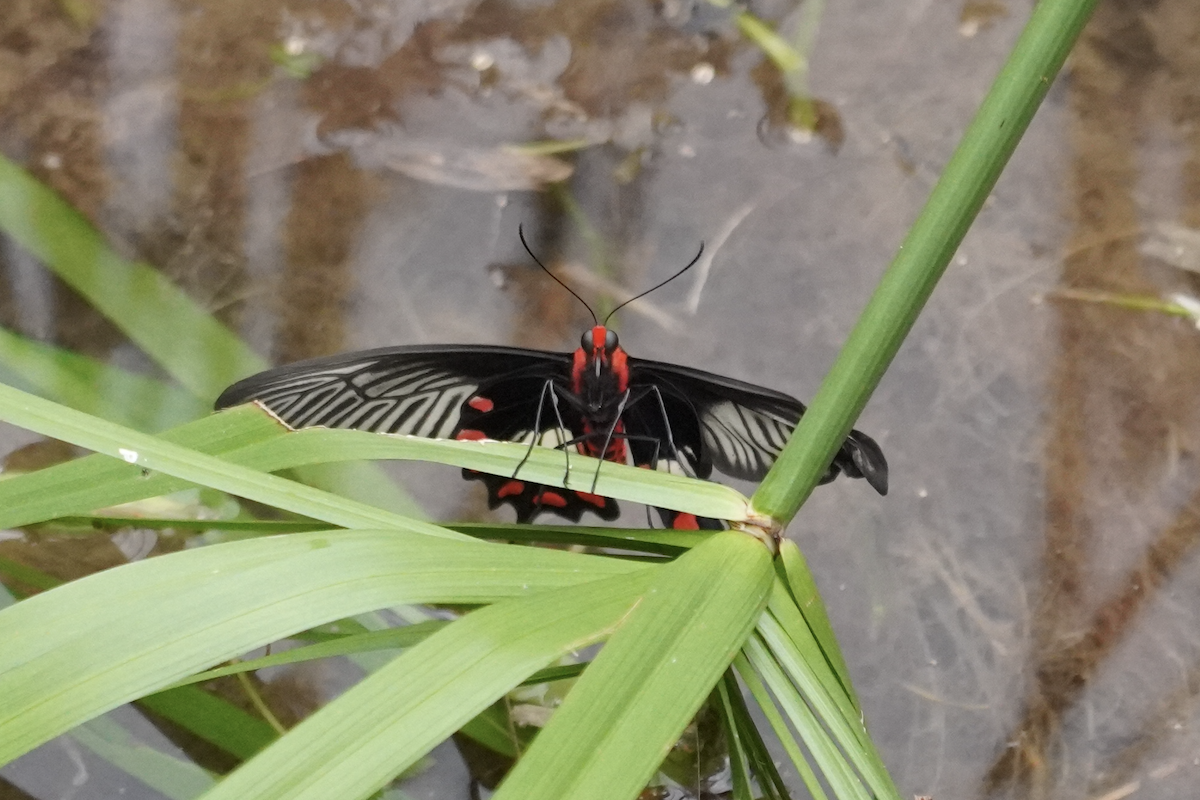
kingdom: Animalia
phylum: Arthropoda
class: Insecta
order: Lepidoptera
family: Papilionidae
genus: Pachliopta
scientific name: Pachliopta aristolochiae
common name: Common rose
